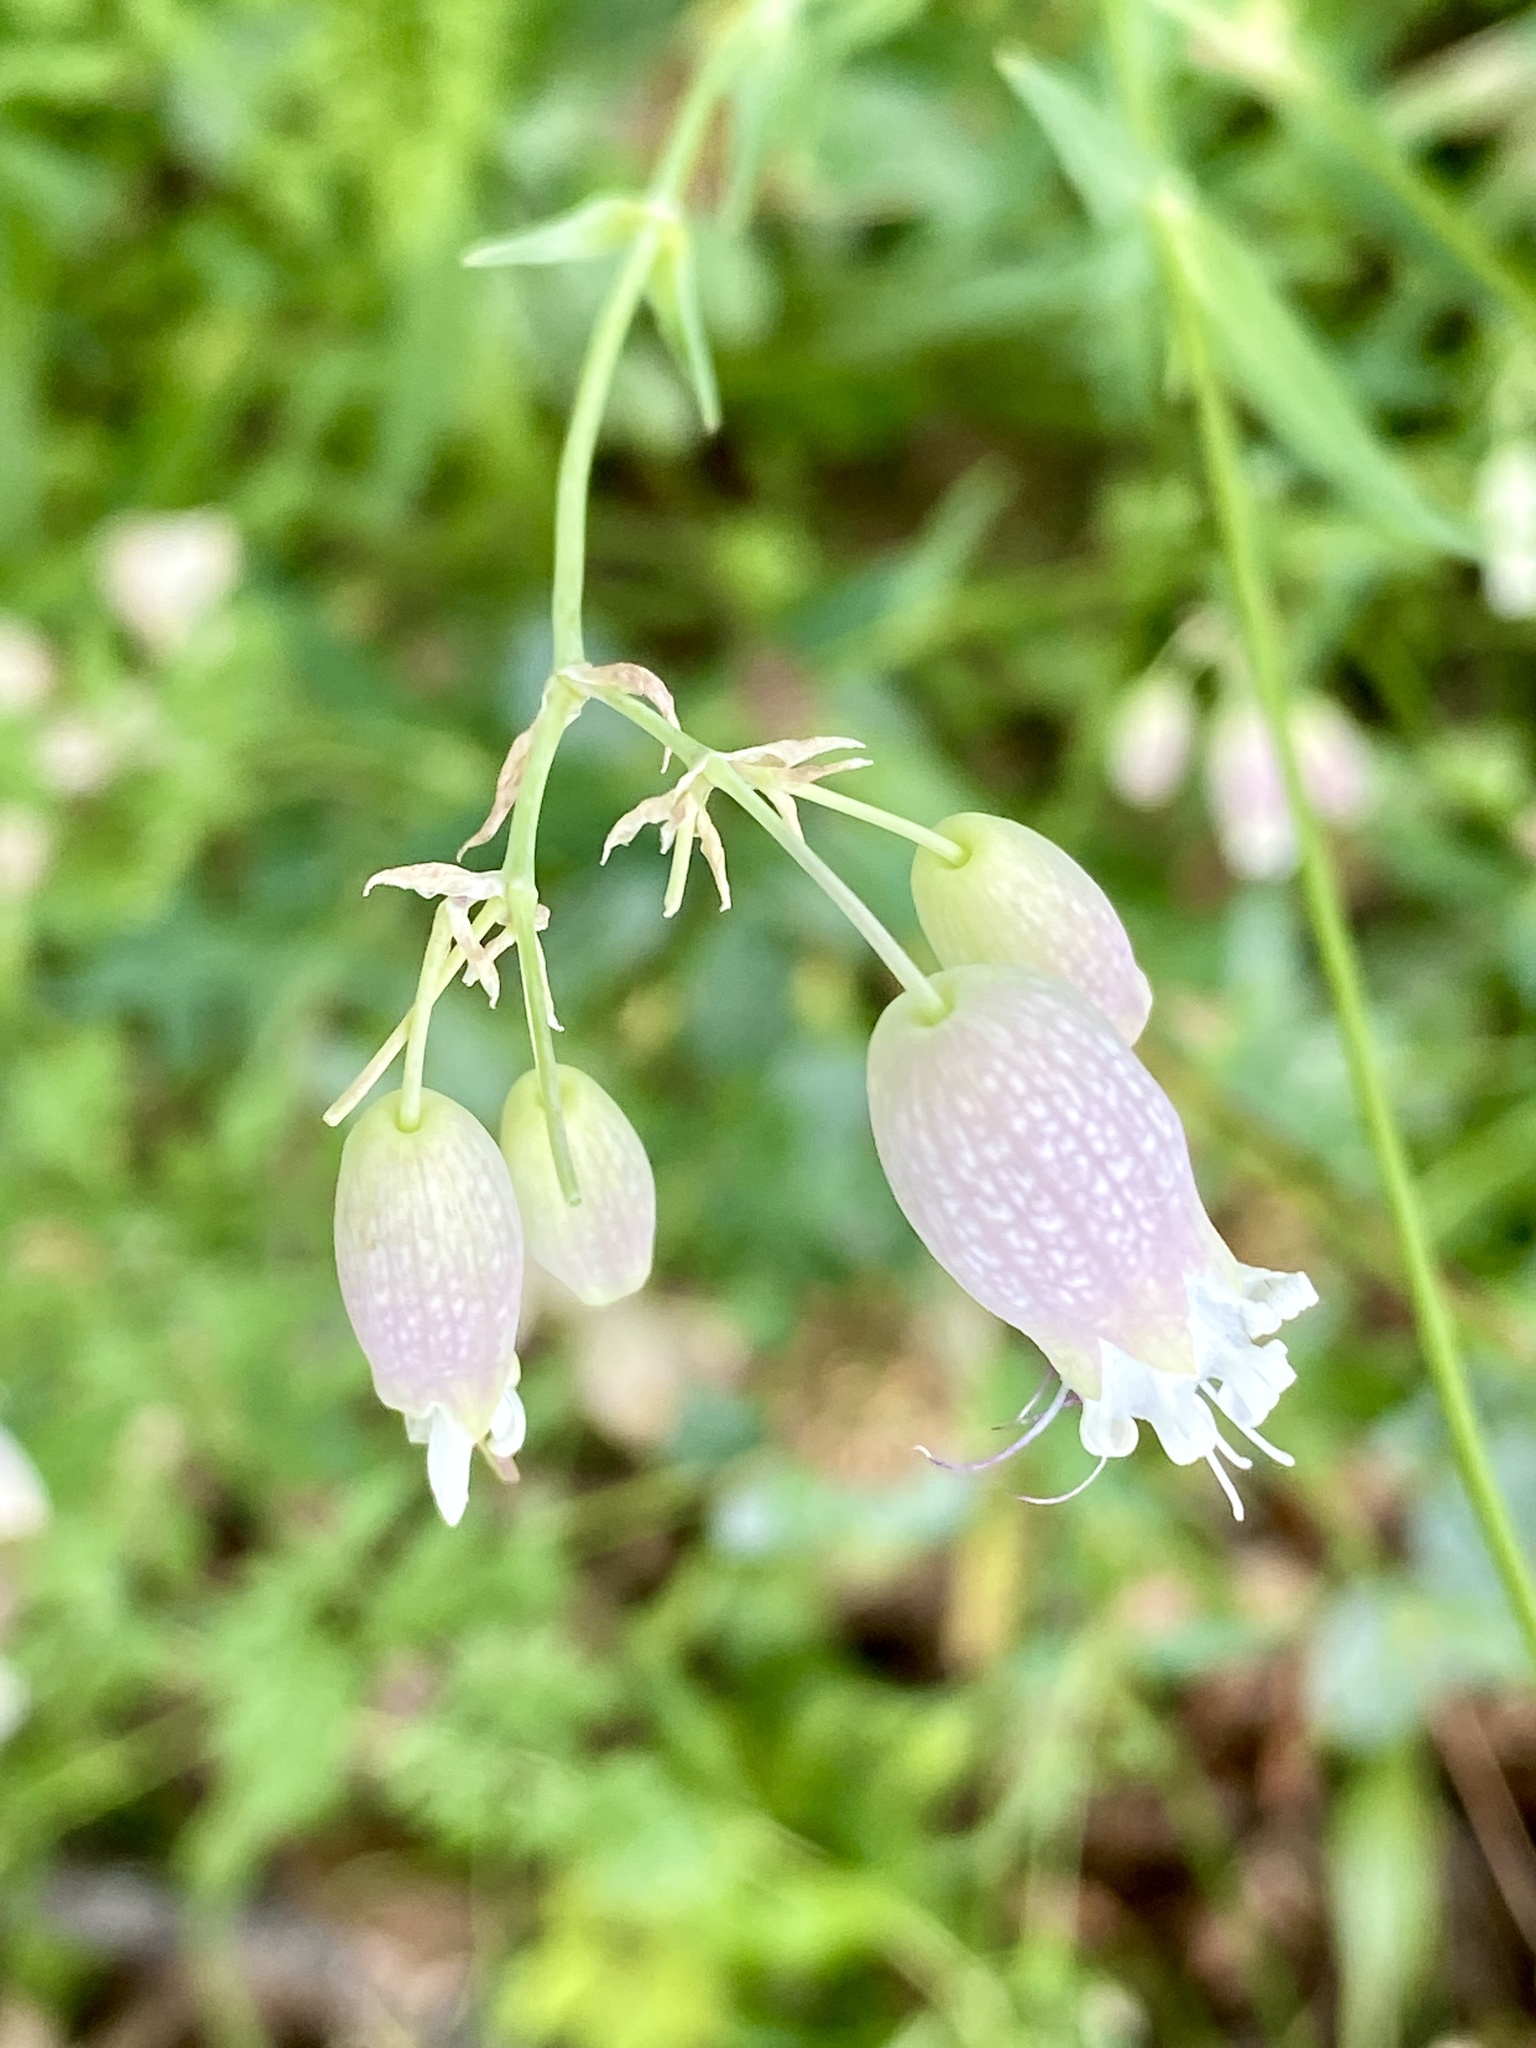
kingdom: Plantae
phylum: Tracheophyta
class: Magnoliopsida
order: Caryophyllales
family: Caryophyllaceae
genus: Silene
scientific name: Silene vulgaris
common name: Bladder campion
